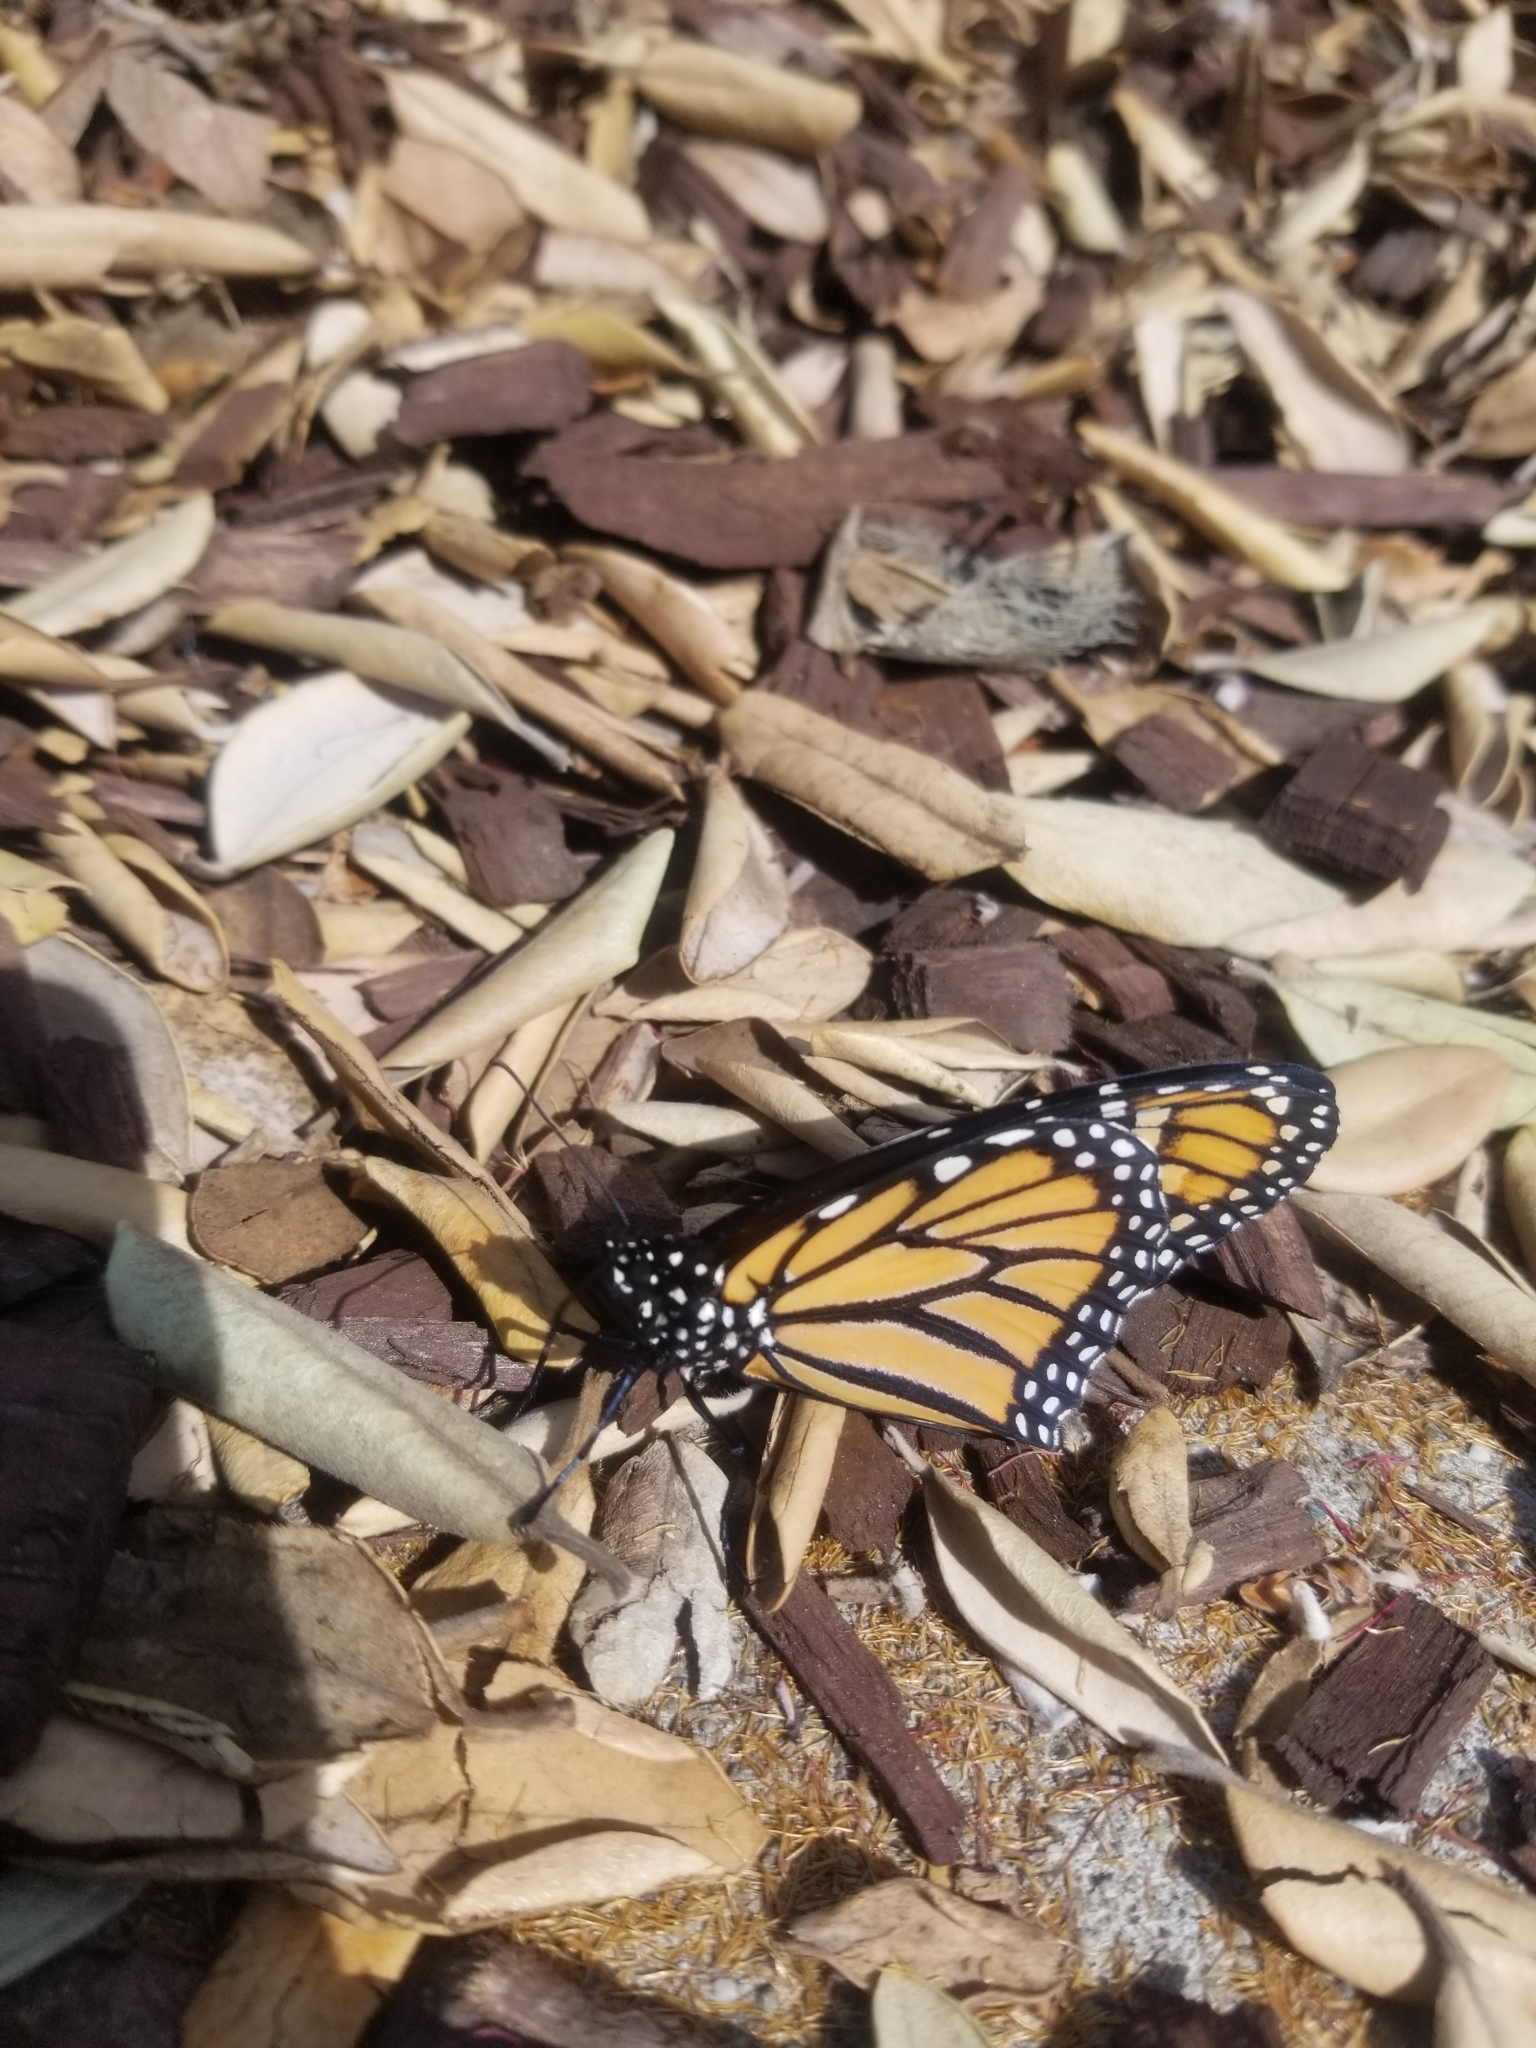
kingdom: Animalia
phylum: Arthropoda
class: Insecta
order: Lepidoptera
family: Nymphalidae
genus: Danaus
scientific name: Danaus plexippus
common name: Monarch
